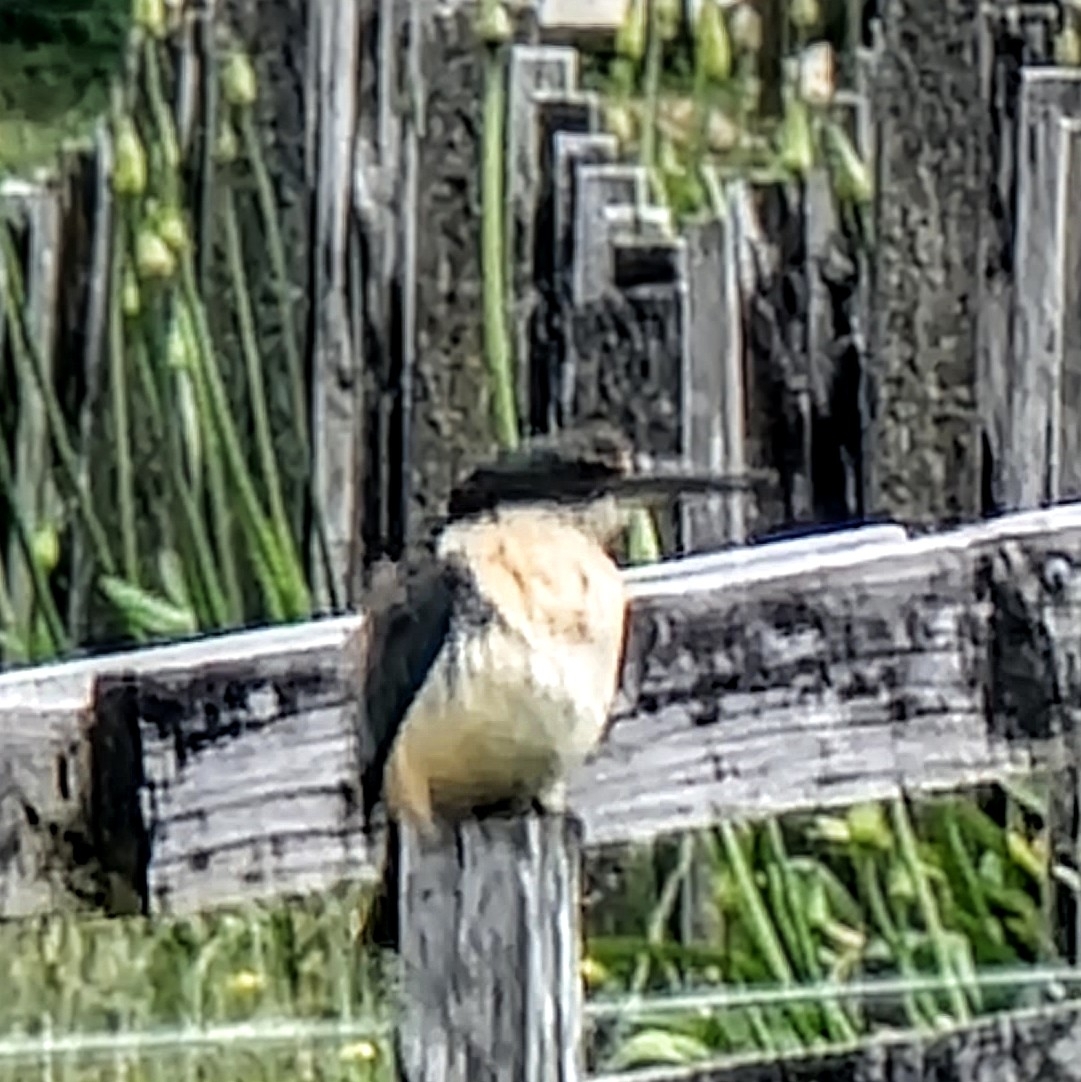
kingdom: Animalia
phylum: Chordata
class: Aves
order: Coraciiformes
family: Alcedinidae
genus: Todiramphus
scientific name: Todiramphus sanctus
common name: Sacred kingfisher
